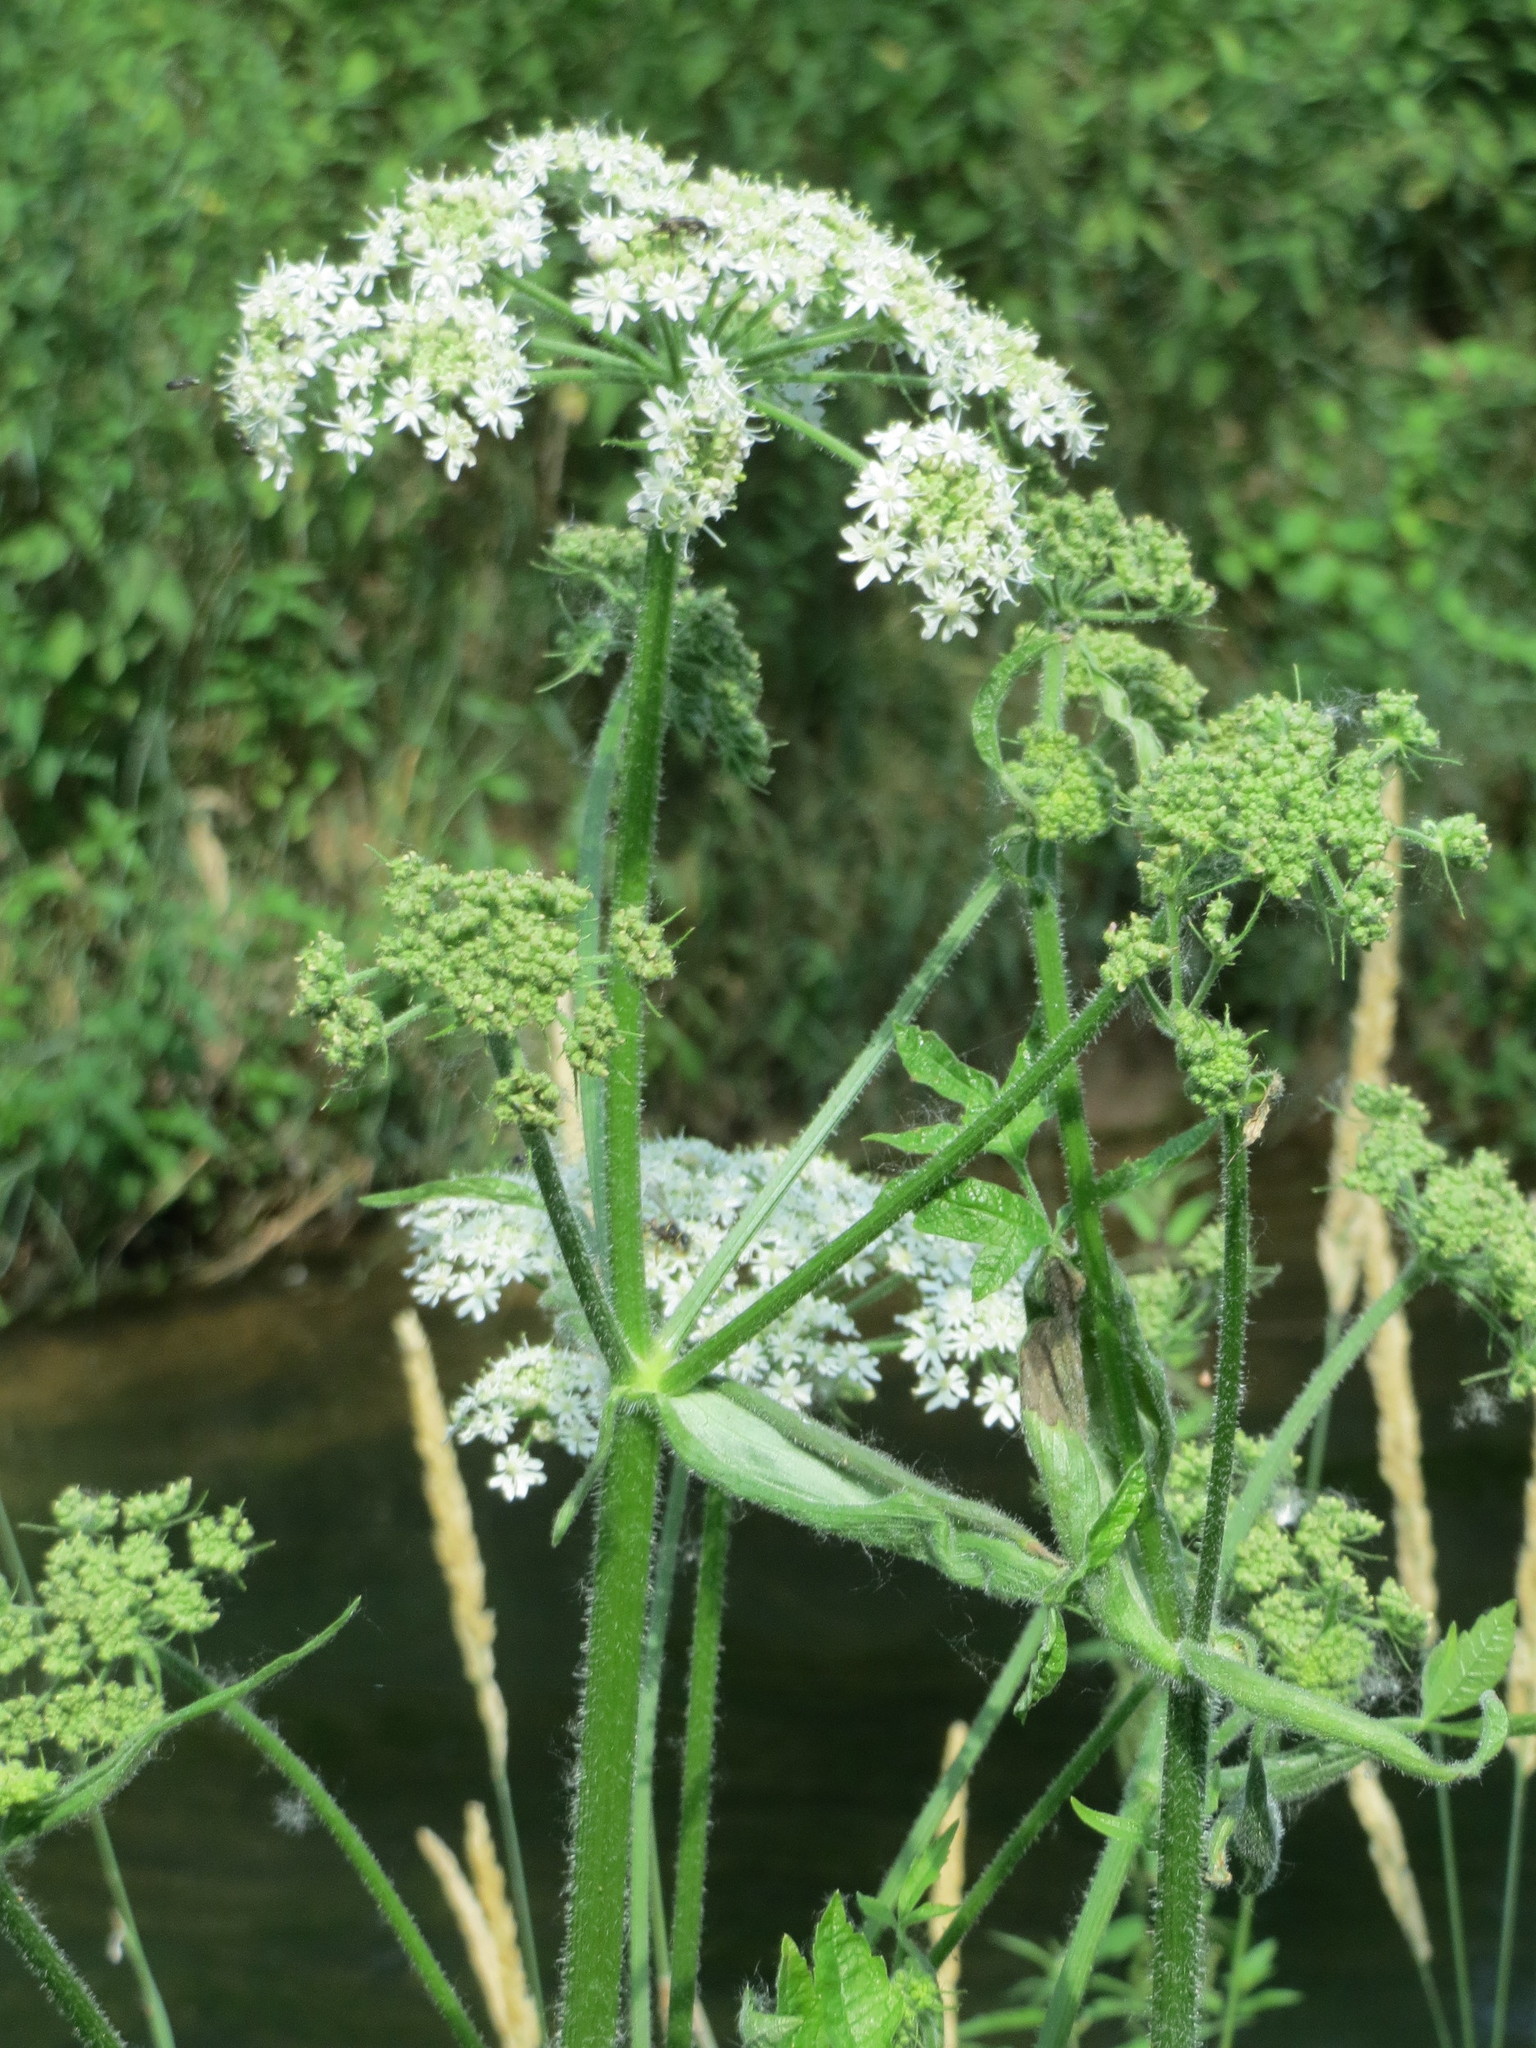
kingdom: Plantae
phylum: Tracheophyta
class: Magnoliopsida
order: Apiales
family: Apiaceae
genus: Heracleum
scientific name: Heracleum sphondylium
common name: Hogweed
